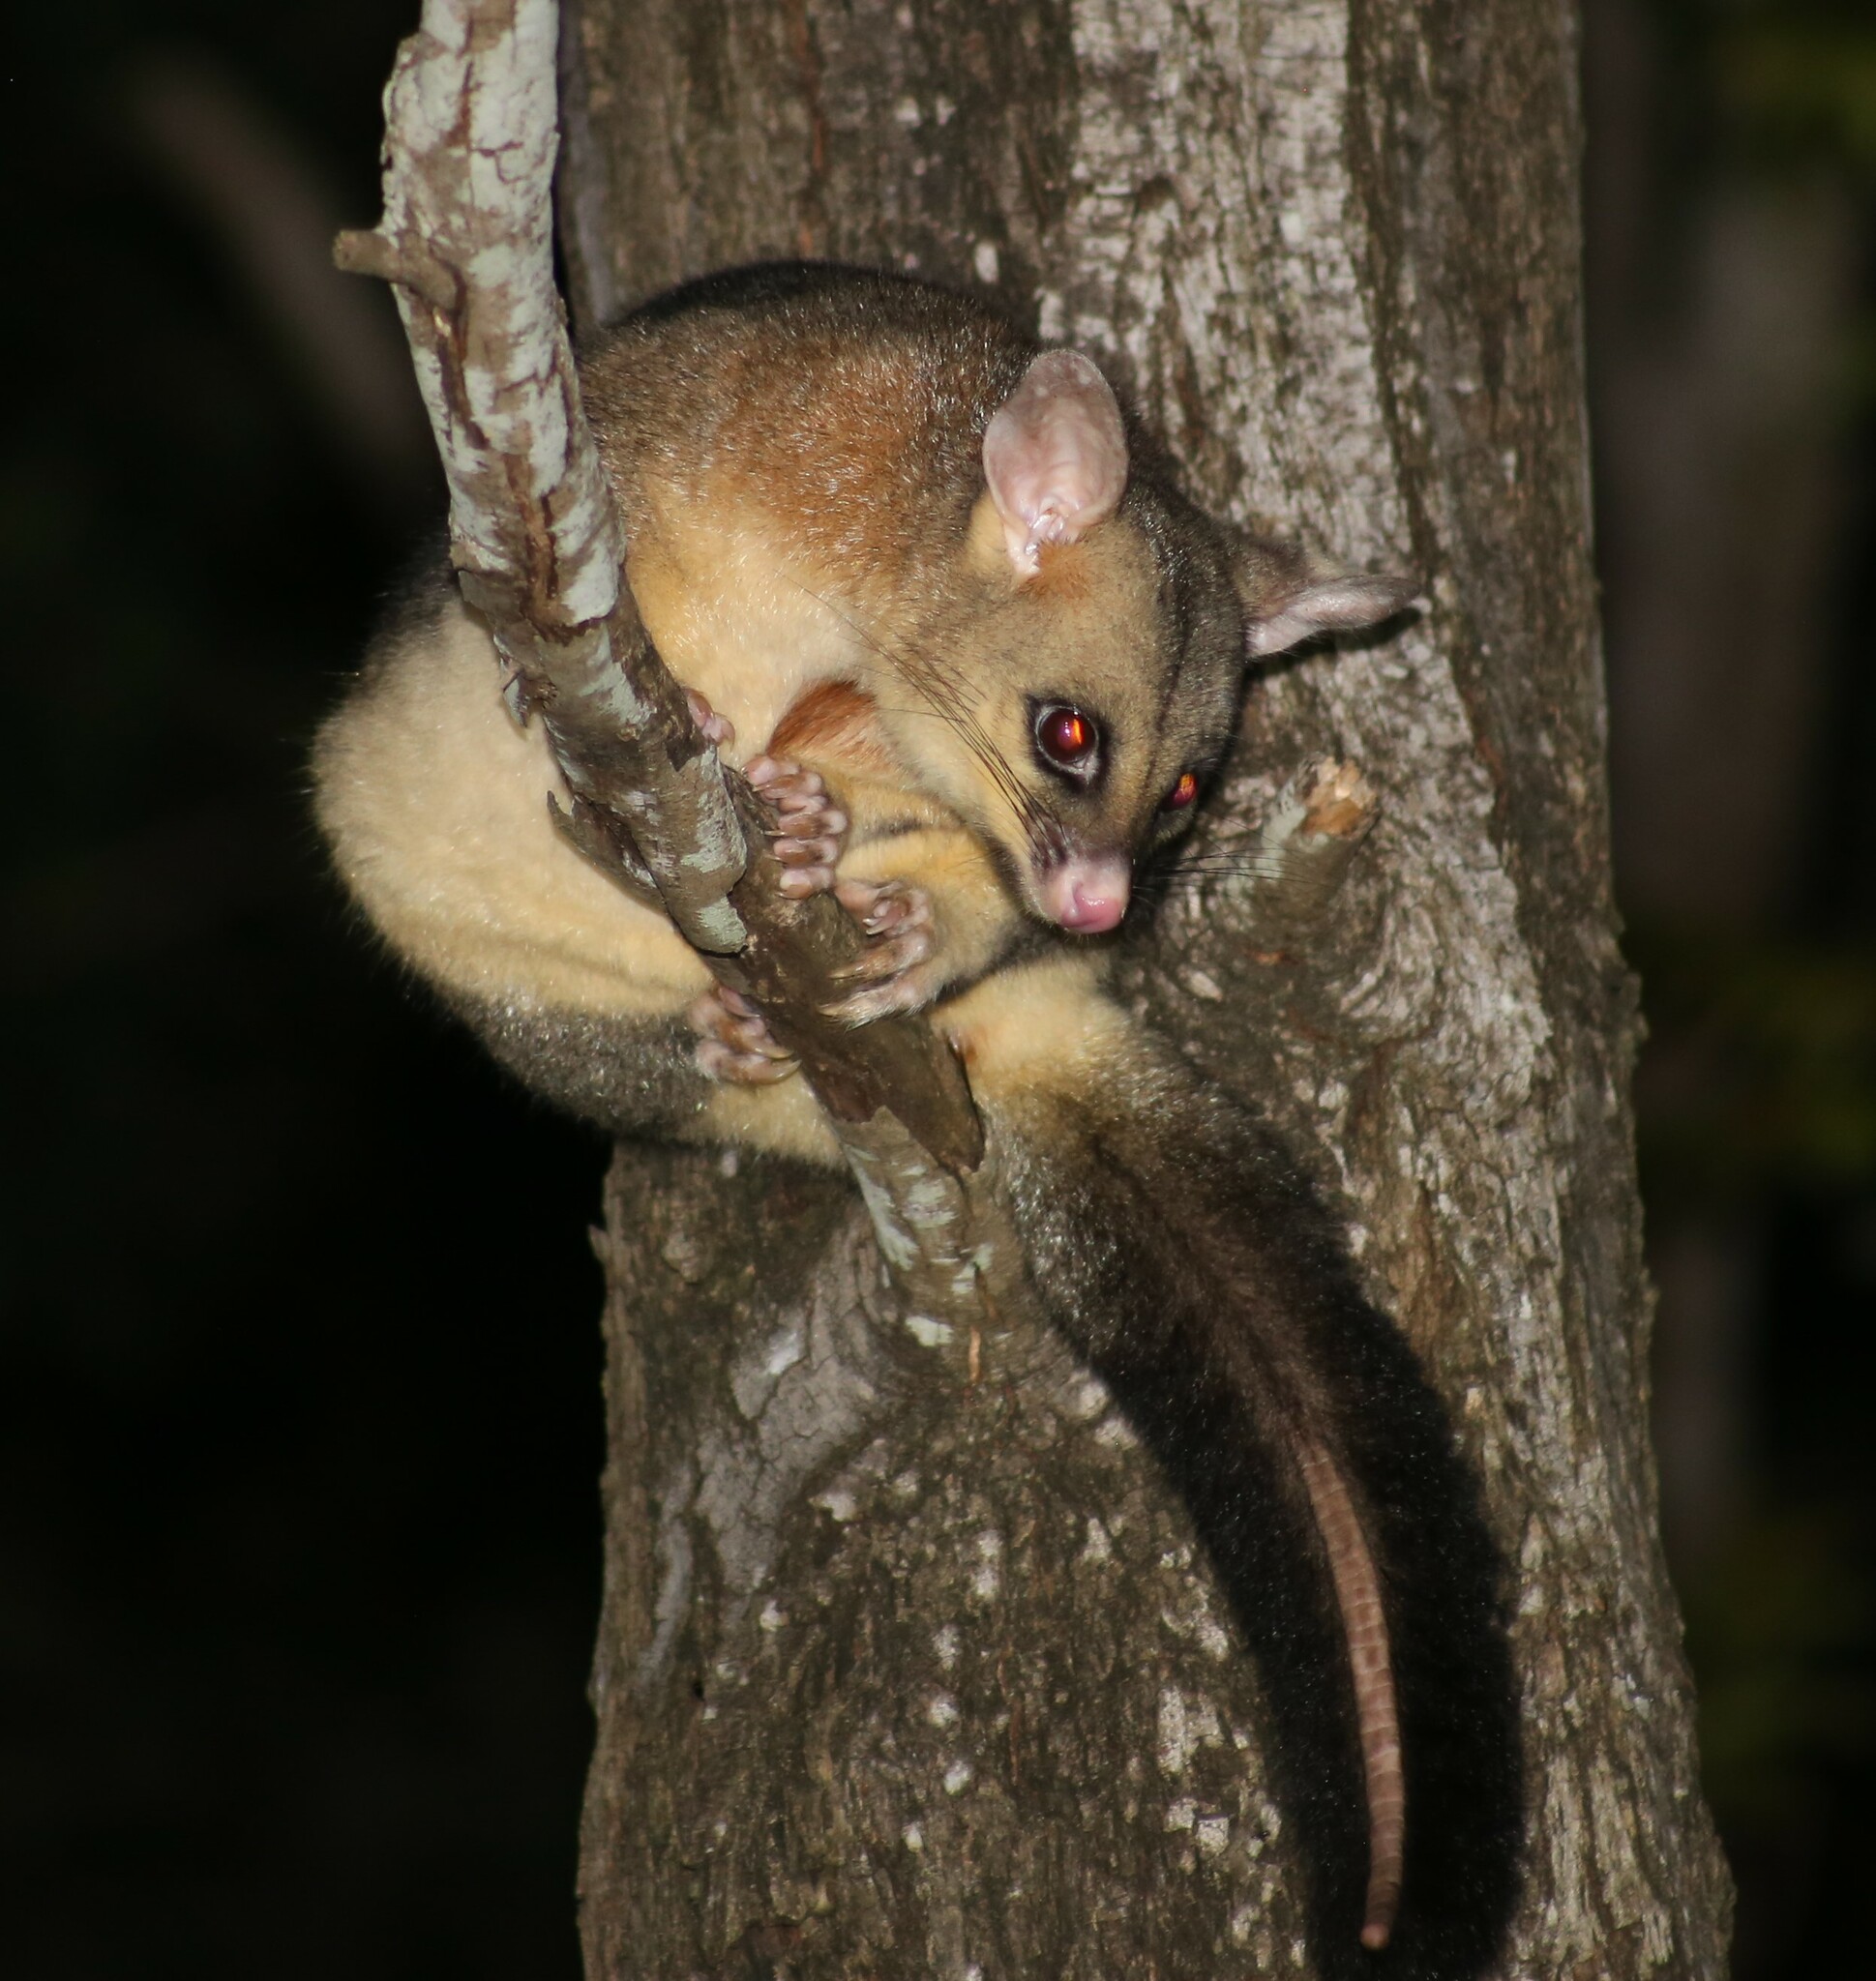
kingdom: Animalia
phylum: Chordata
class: Mammalia
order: Diprotodontia
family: Phalangeridae
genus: Trichosurus
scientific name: Trichosurus vulpecula
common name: Common brushtail
